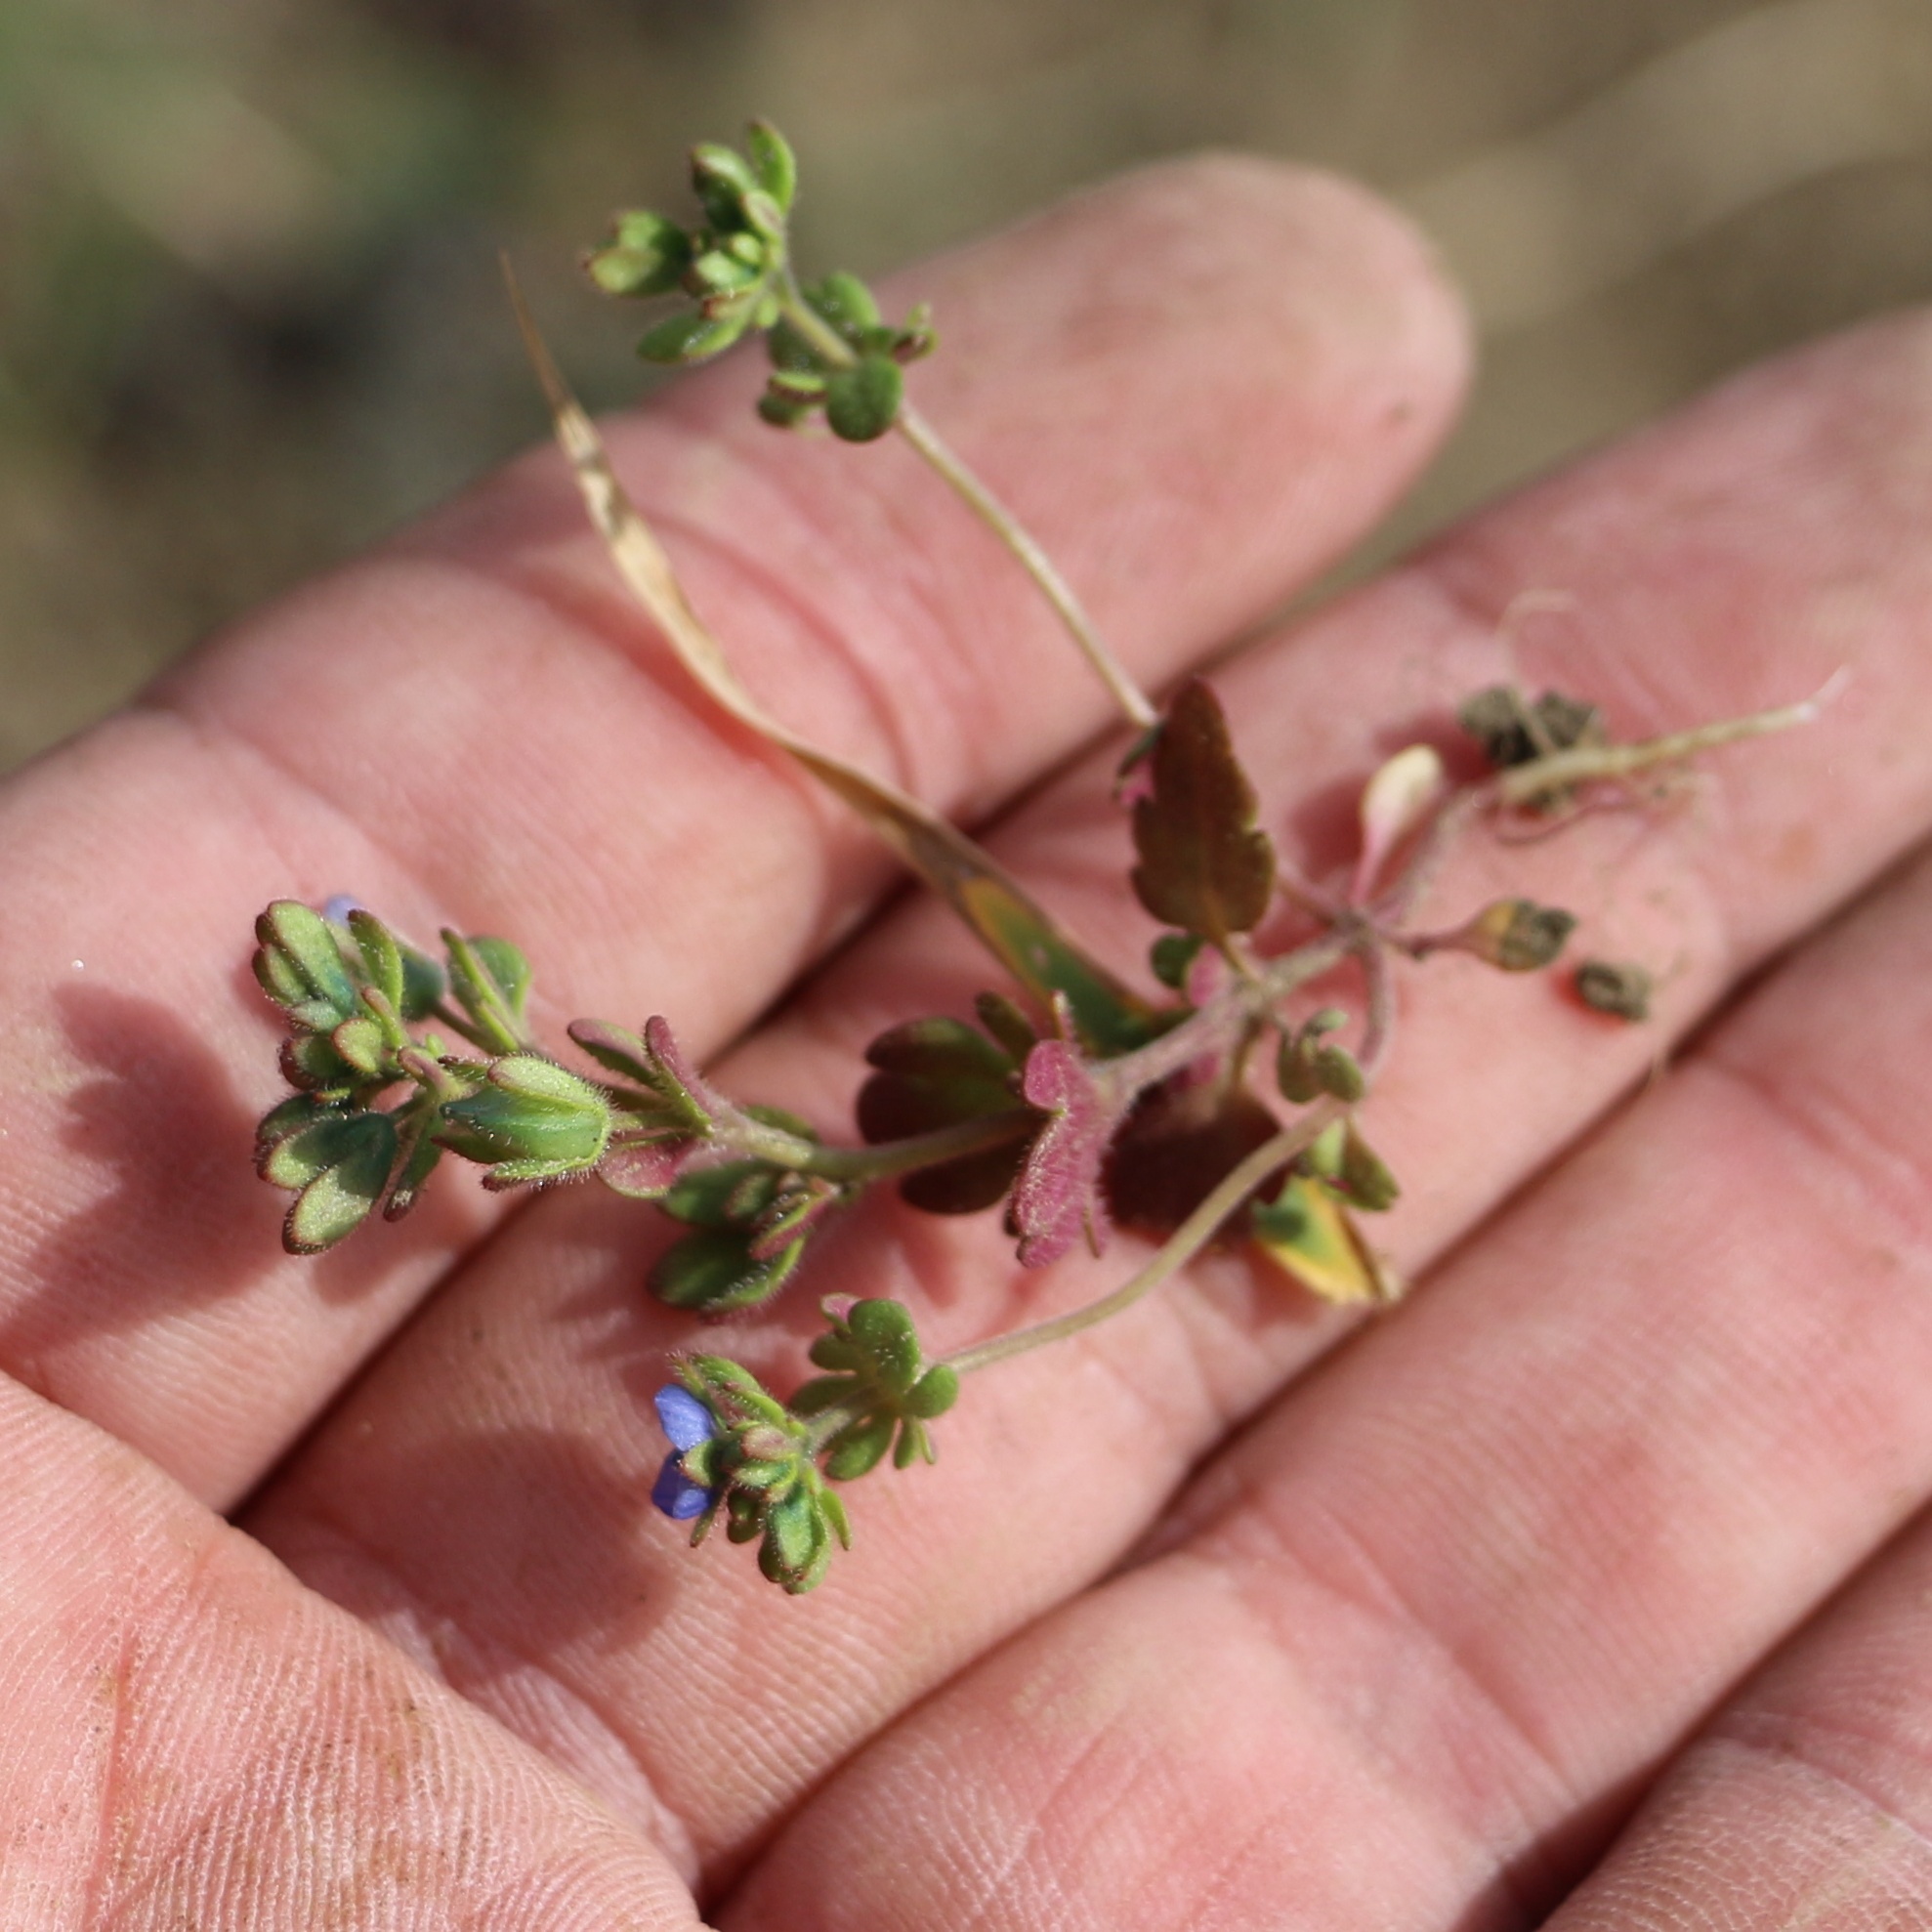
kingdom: Plantae
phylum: Tracheophyta
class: Magnoliopsida
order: Lamiales
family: Plantaginaceae
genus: Veronica
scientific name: Veronica triphyllos
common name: Fingered speedwell
